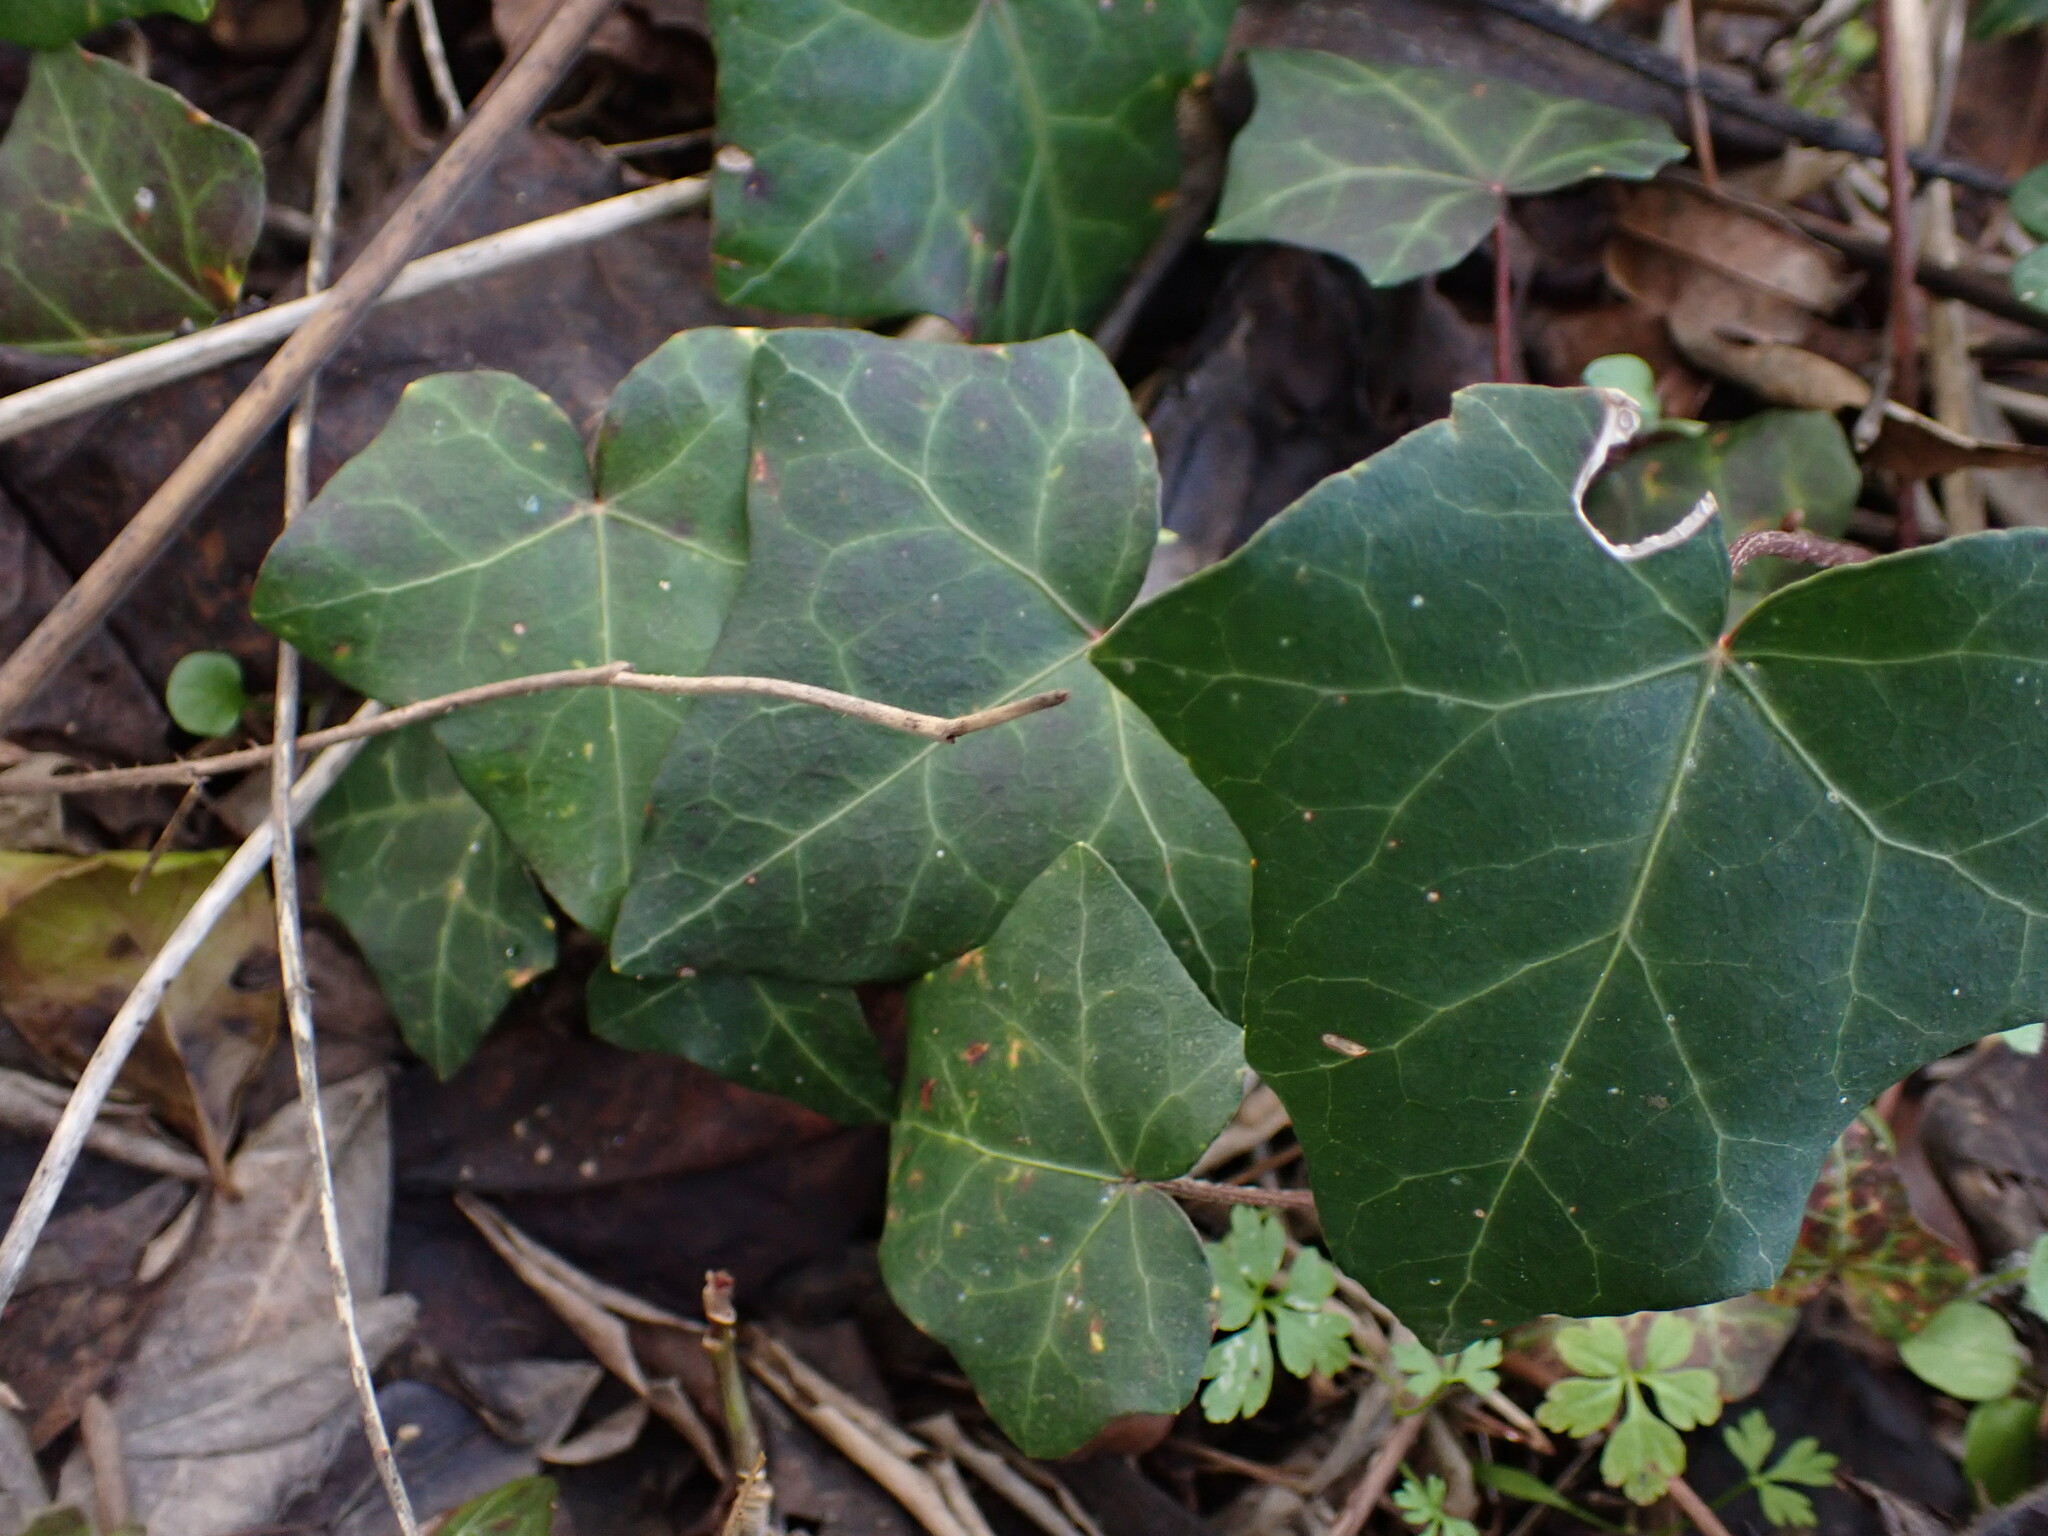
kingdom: Plantae
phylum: Tracheophyta
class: Magnoliopsida
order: Apiales
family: Araliaceae
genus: Hedera
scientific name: Hedera helix
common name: Ivy
